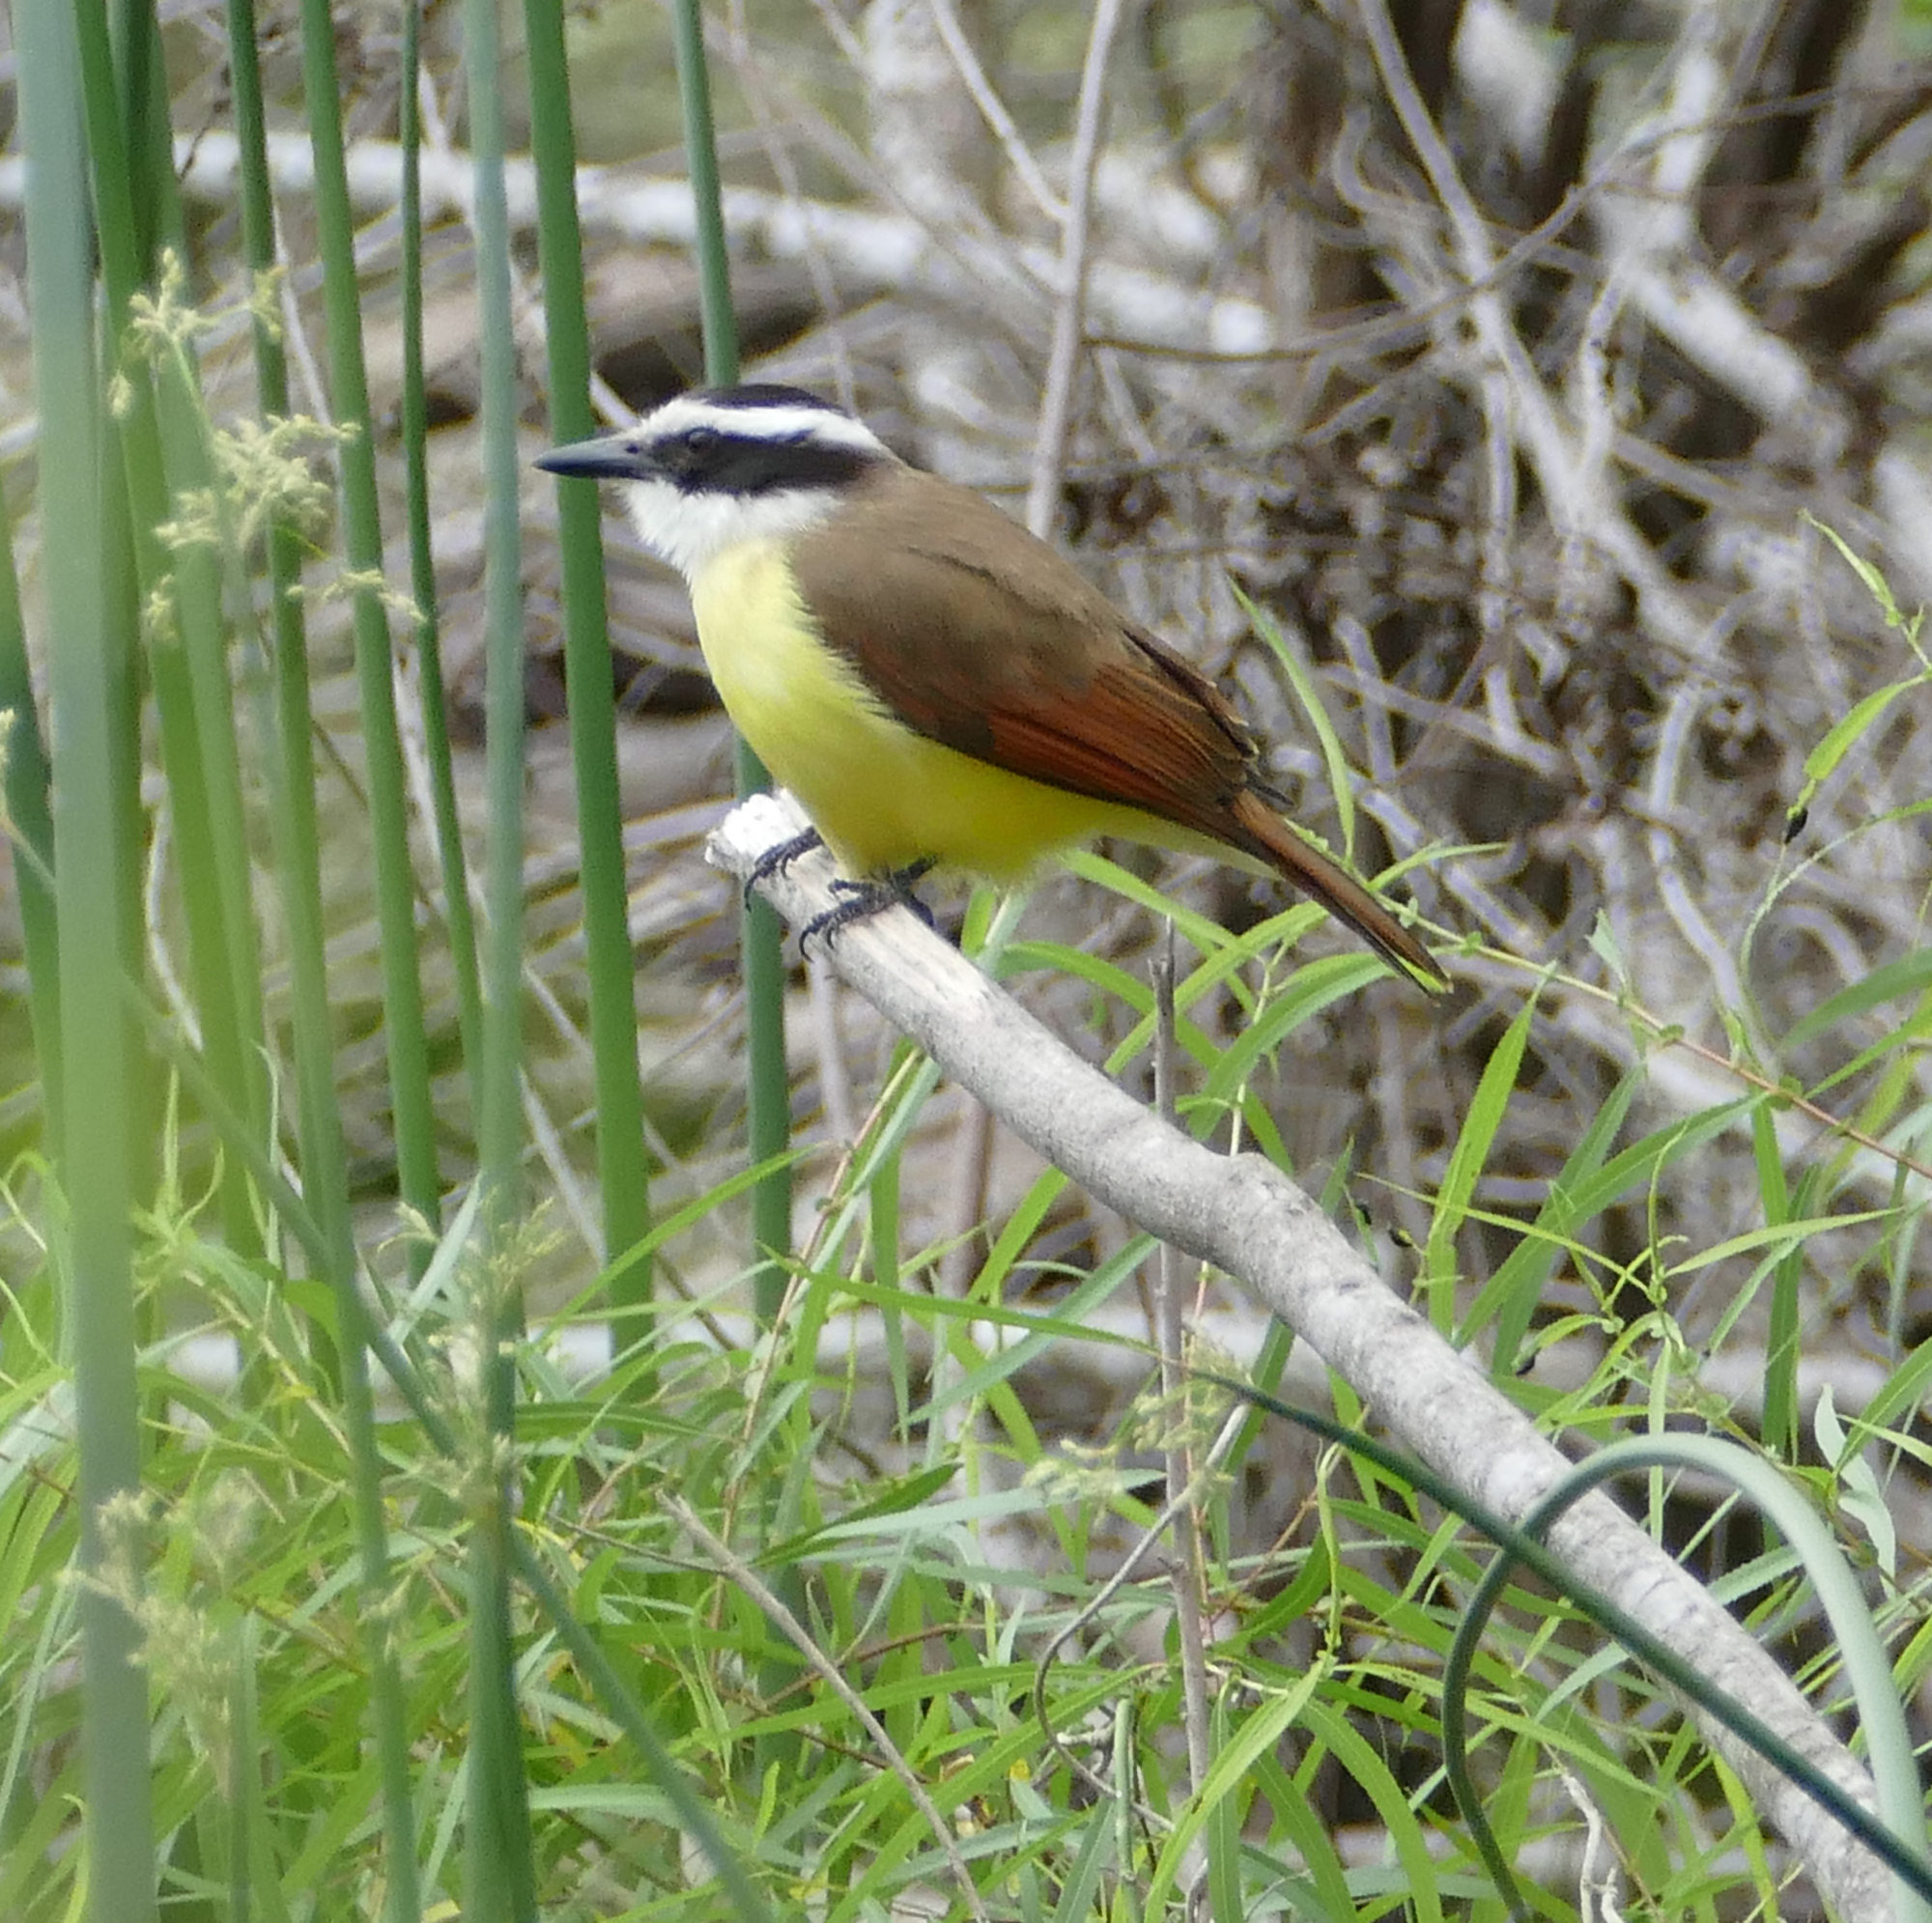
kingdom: Animalia
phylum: Chordata
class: Aves
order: Passeriformes
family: Tyrannidae
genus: Pitangus
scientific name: Pitangus sulphuratus
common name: Great kiskadee
